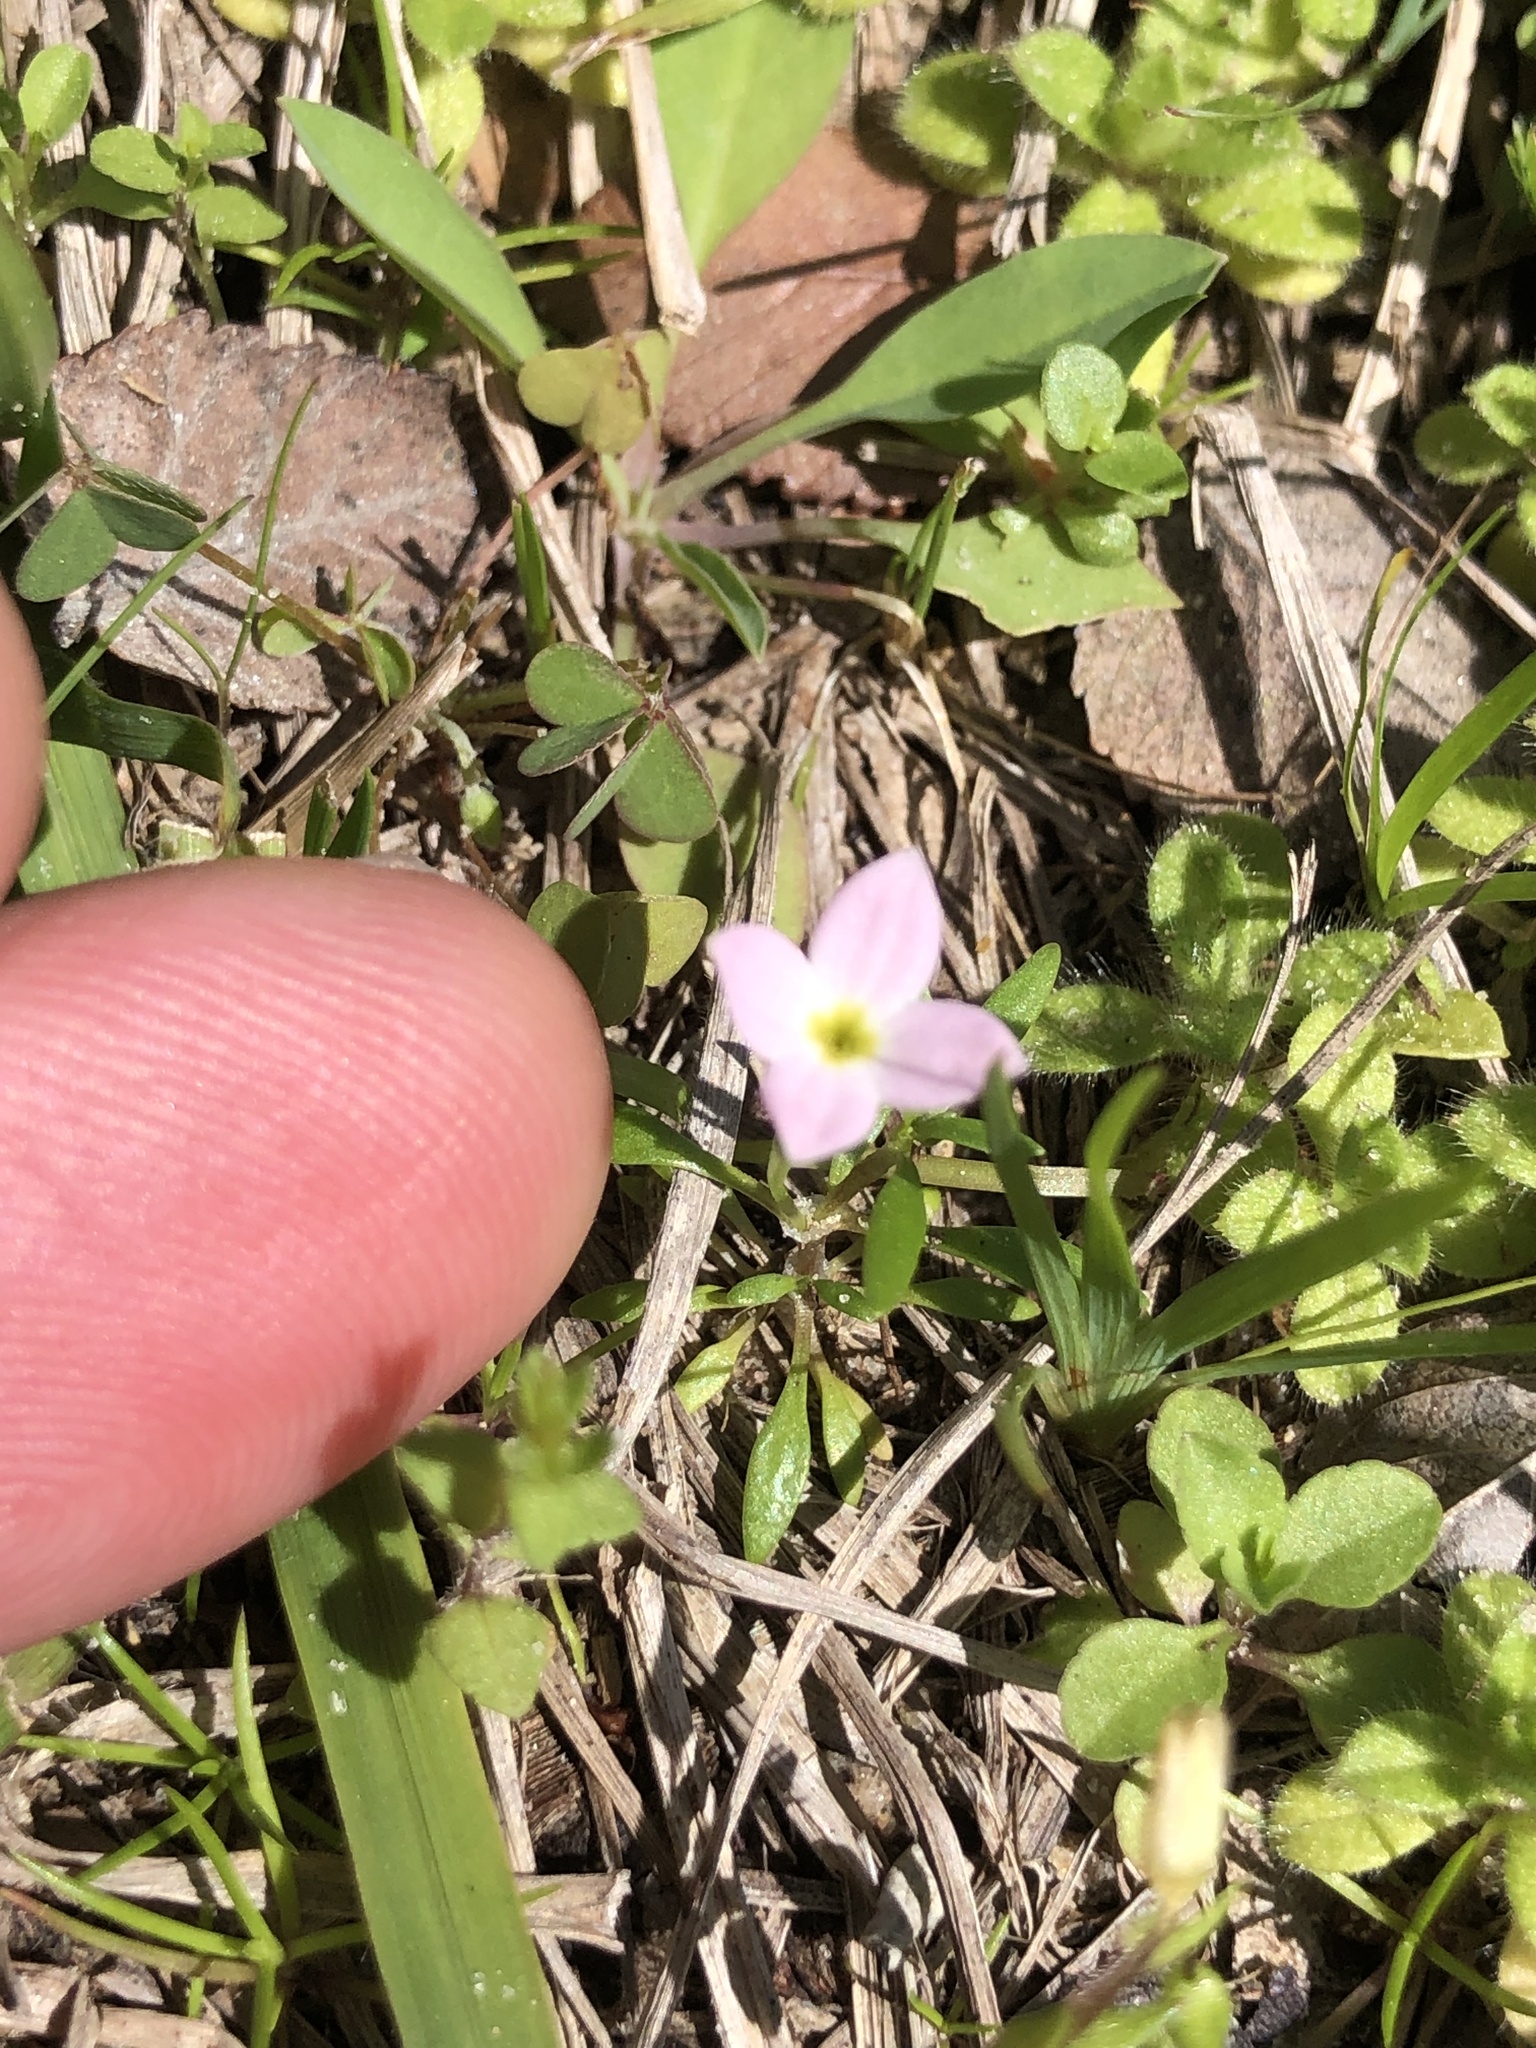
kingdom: Plantae
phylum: Tracheophyta
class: Magnoliopsida
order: Gentianales
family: Rubiaceae
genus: Houstonia
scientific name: Houstonia rosea
